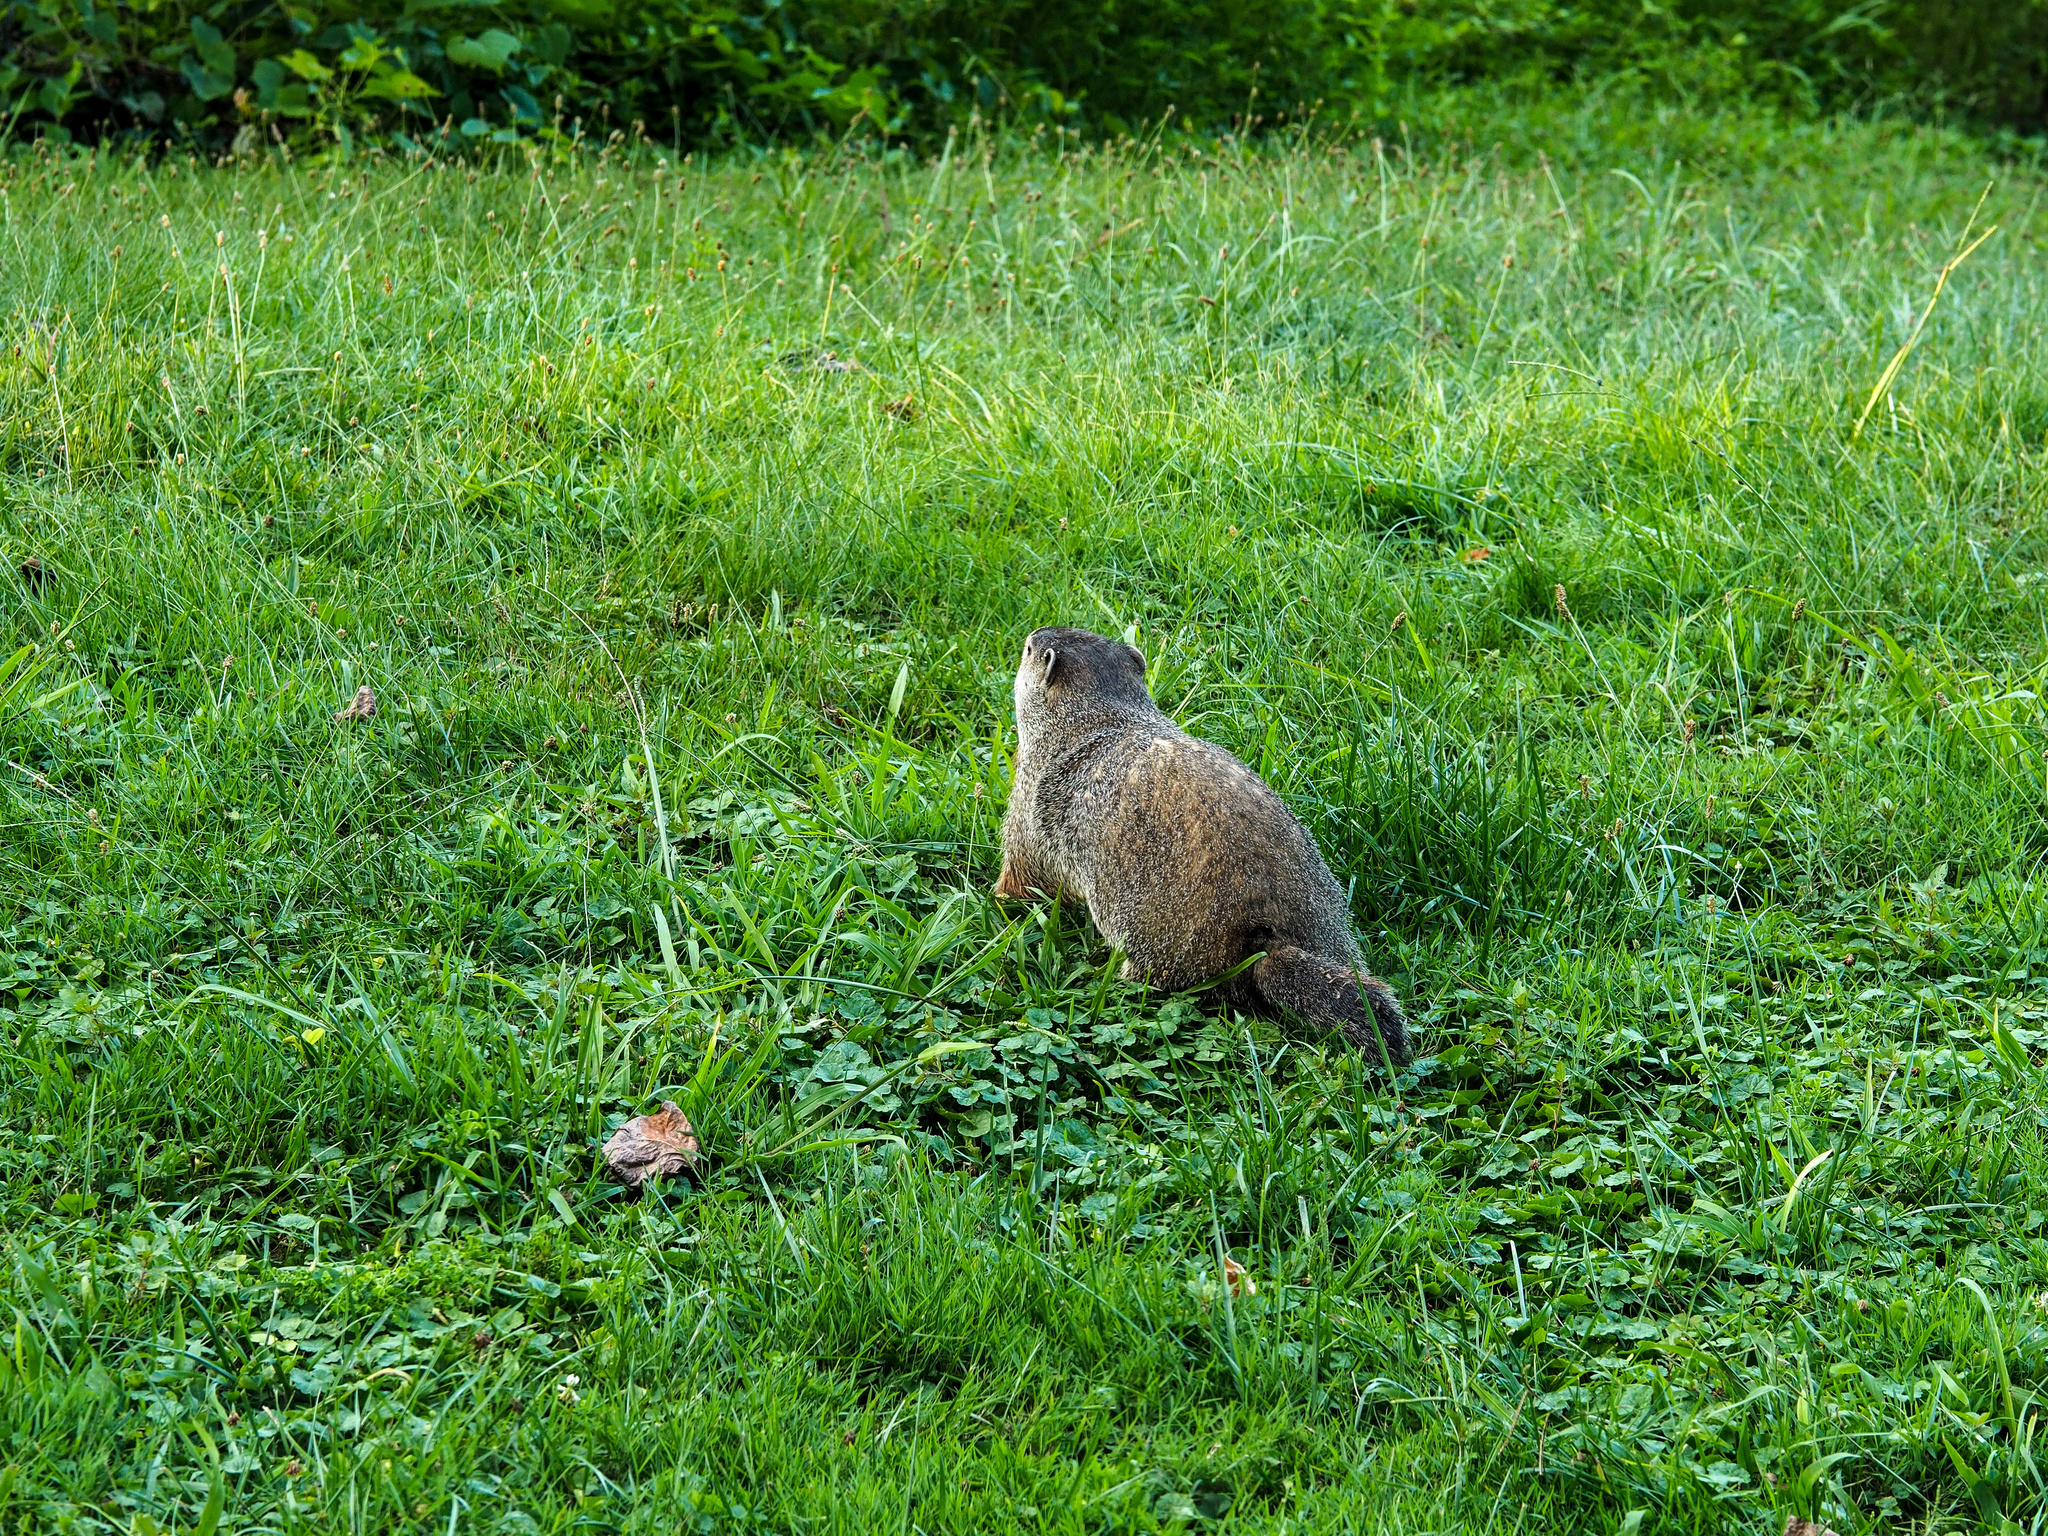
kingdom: Animalia
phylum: Chordata
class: Mammalia
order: Rodentia
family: Sciuridae
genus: Marmota
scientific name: Marmota monax
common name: Groundhog
